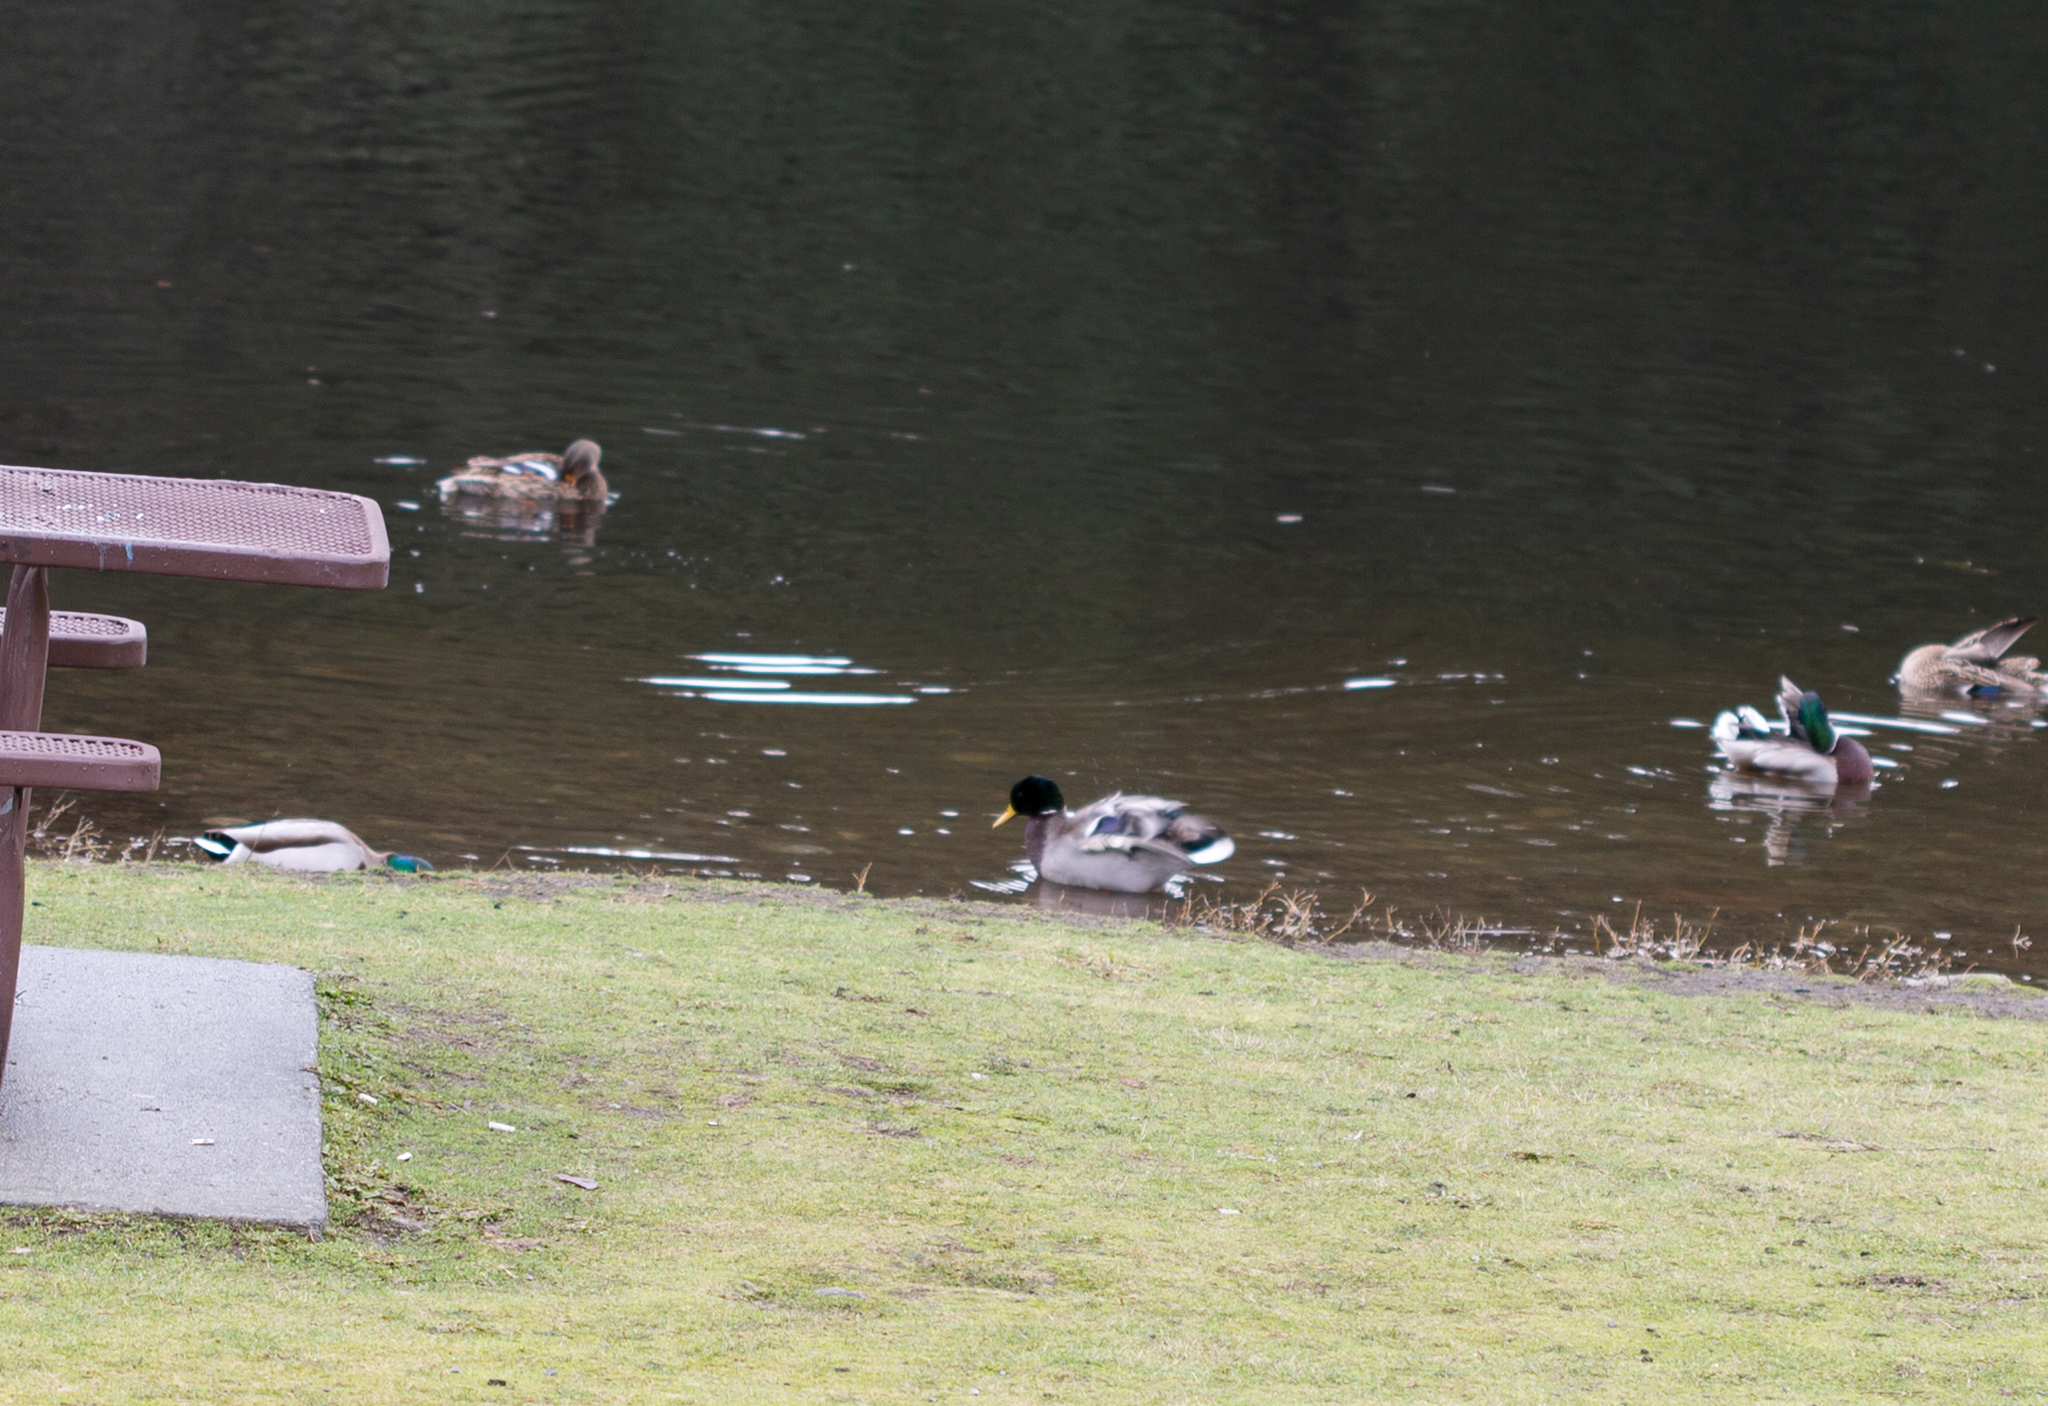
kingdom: Animalia
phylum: Chordata
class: Aves
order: Anseriformes
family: Anatidae
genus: Anas
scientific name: Anas platyrhynchos
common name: Mallard
